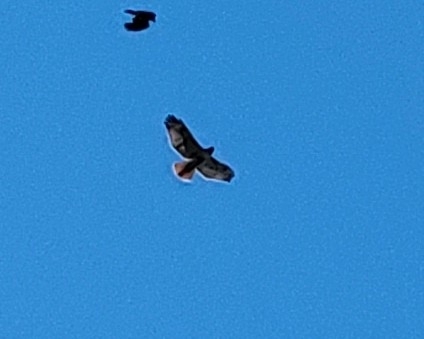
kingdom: Animalia
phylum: Chordata
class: Aves
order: Accipitriformes
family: Accipitridae
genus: Buteo
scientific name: Buteo jamaicensis
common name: Red-tailed hawk
